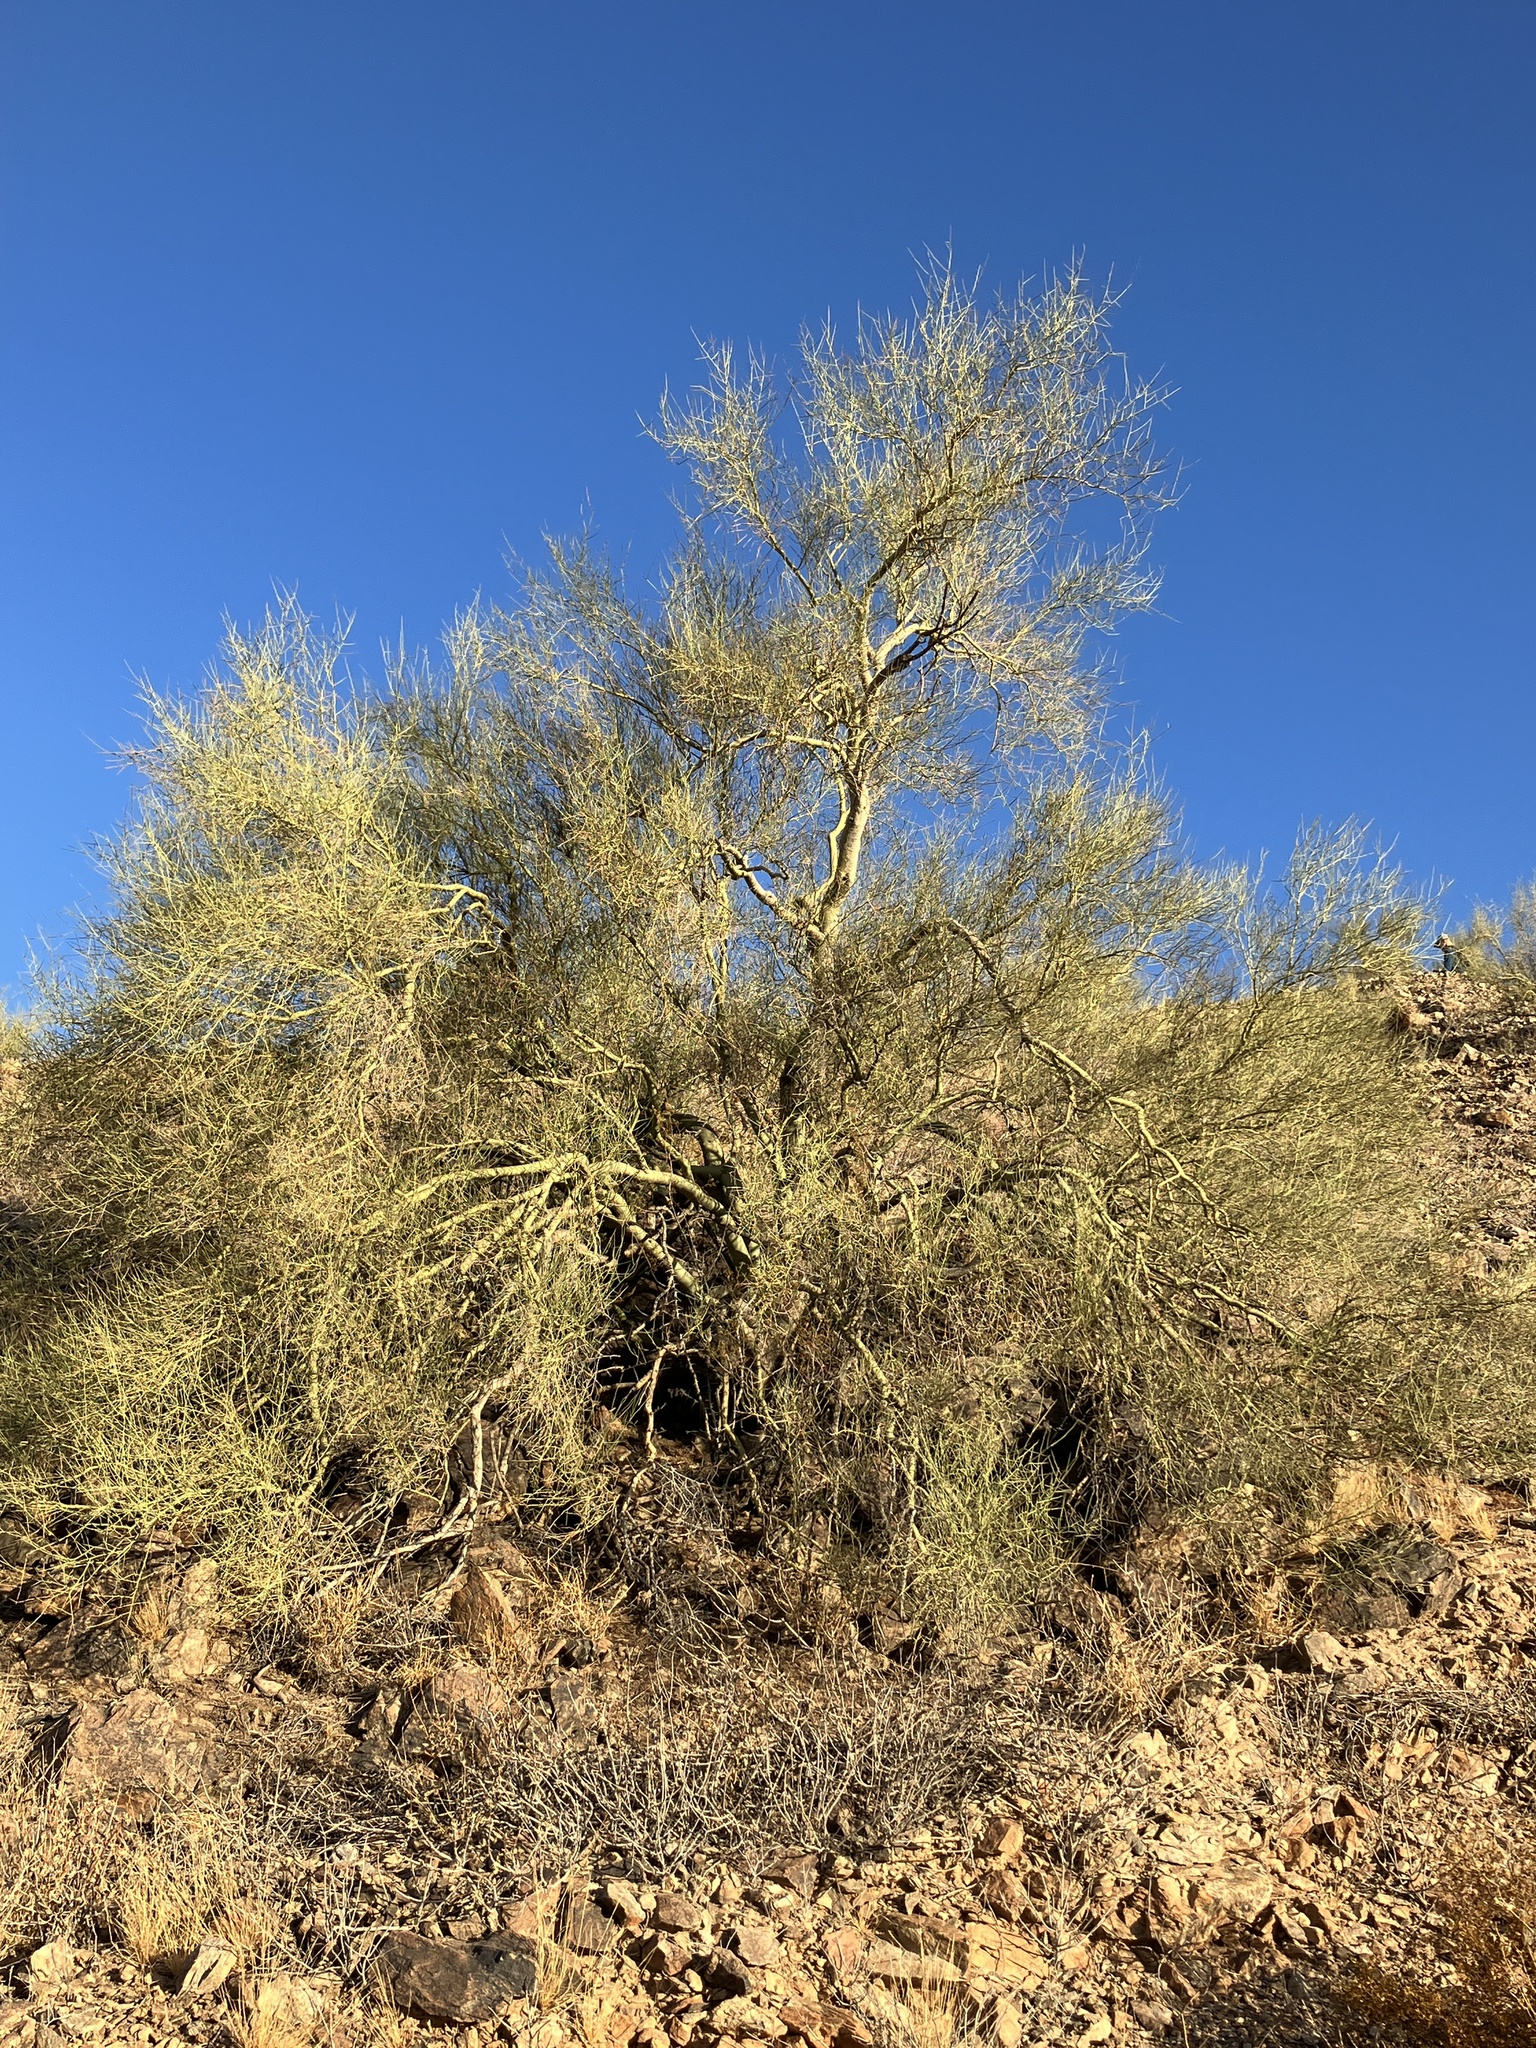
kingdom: Plantae
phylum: Tracheophyta
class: Magnoliopsida
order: Fabales
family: Fabaceae
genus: Parkinsonia
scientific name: Parkinsonia microphylla
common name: Yellow paloverde
